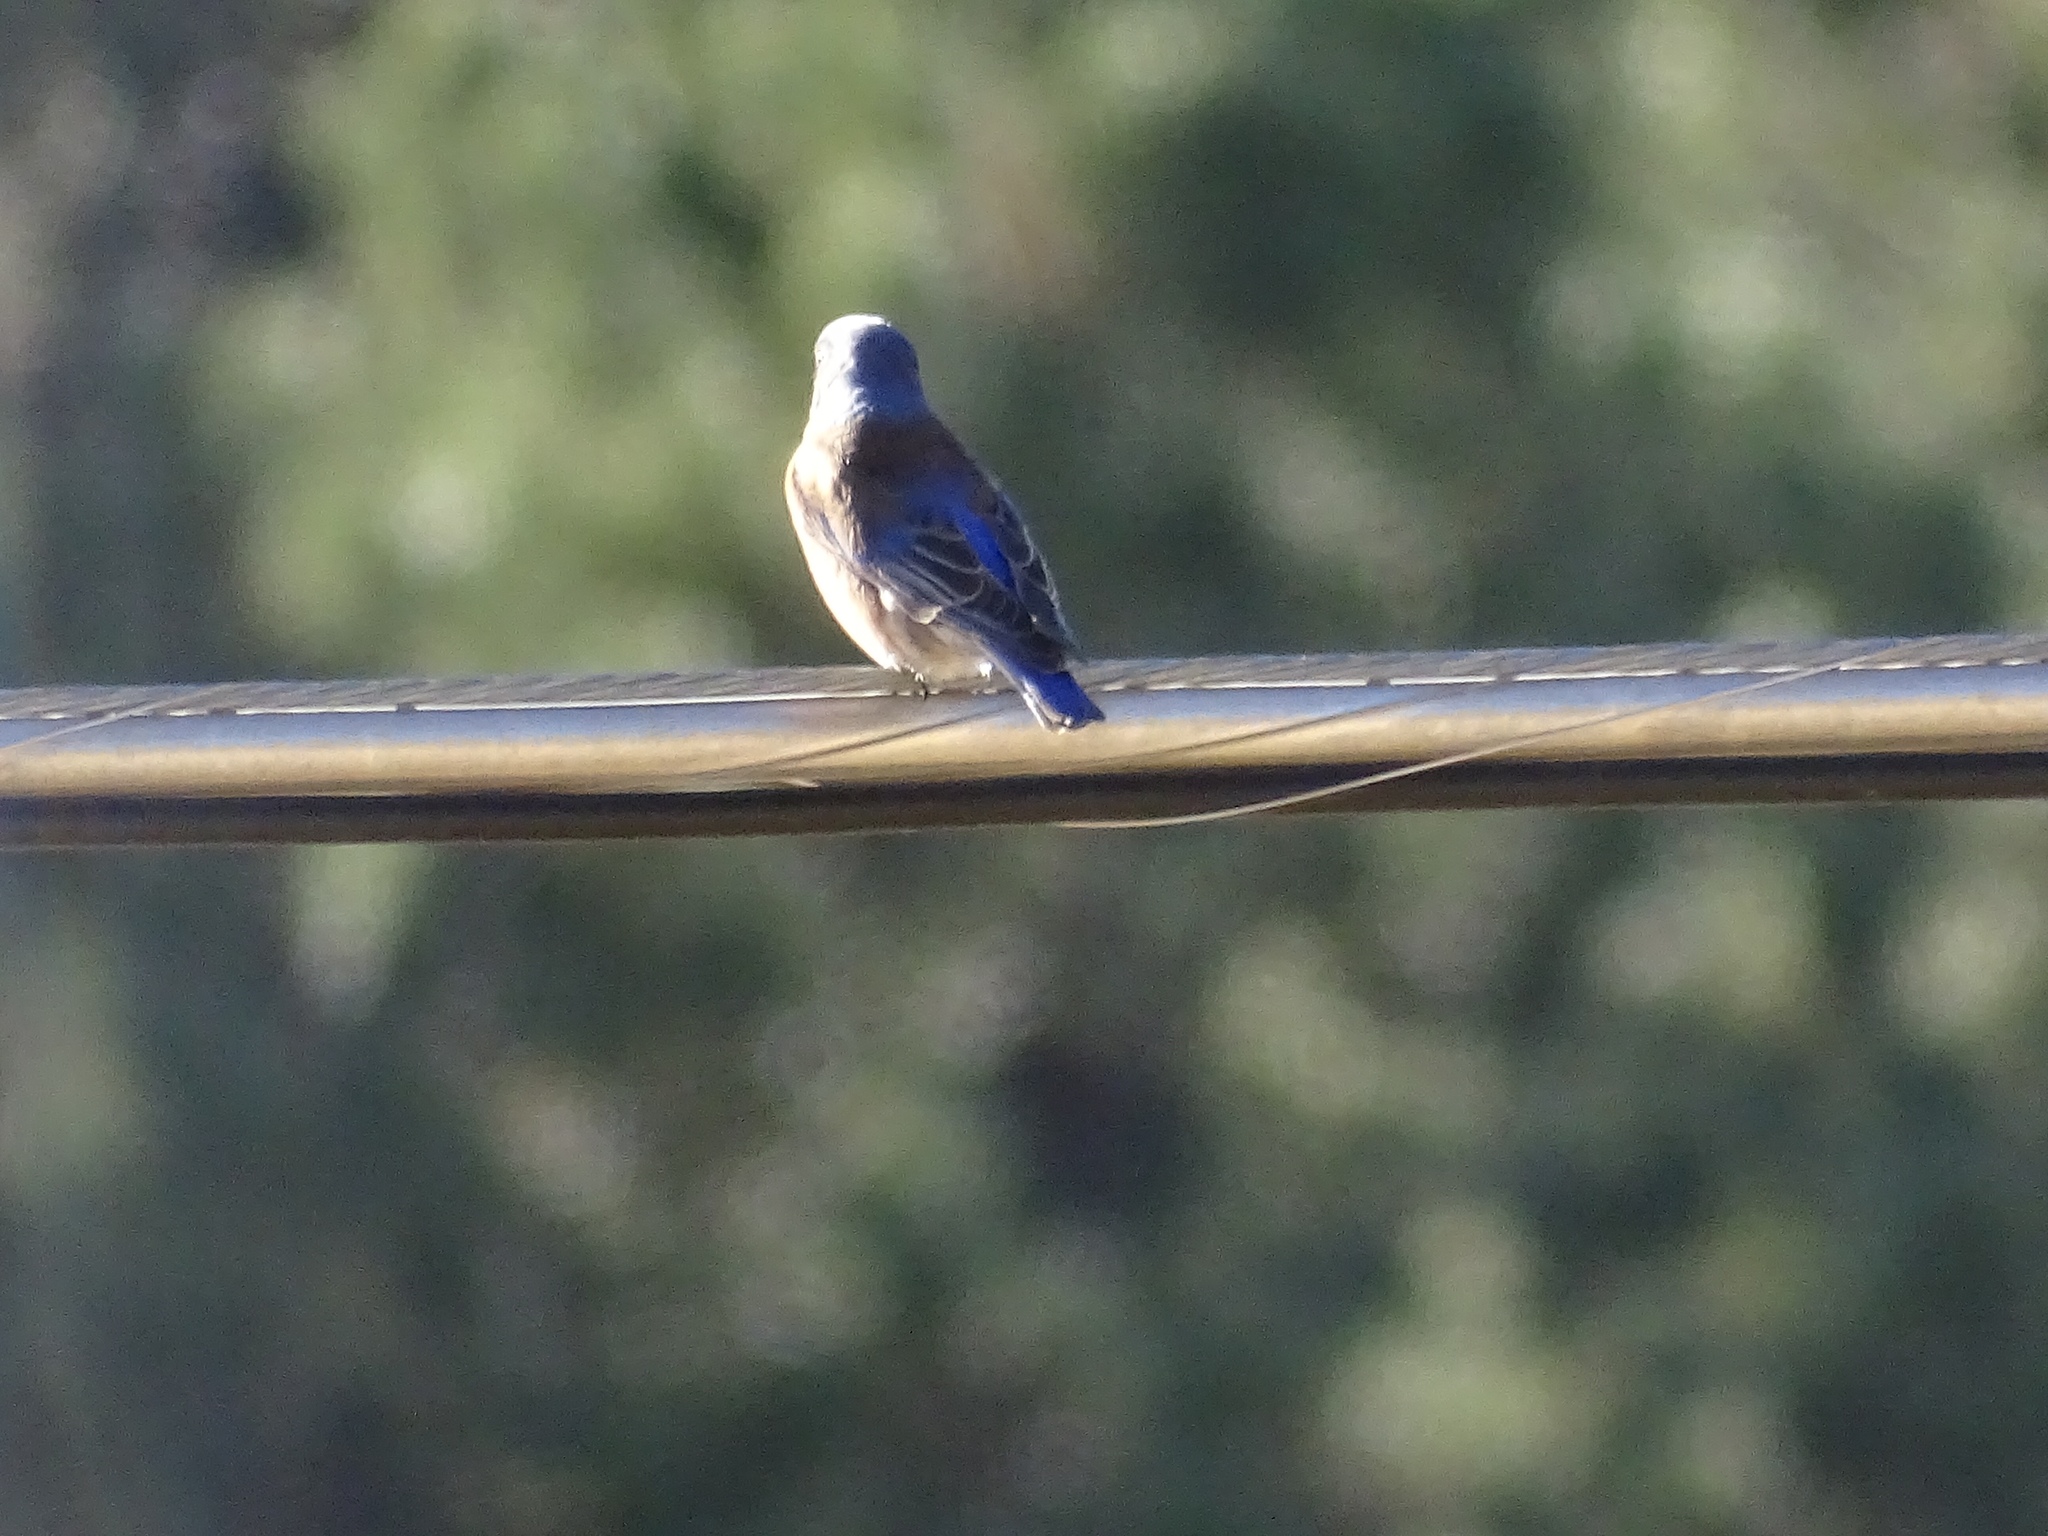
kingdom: Animalia
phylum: Chordata
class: Aves
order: Passeriformes
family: Turdidae
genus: Sialia
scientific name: Sialia mexicana
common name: Western bluebird
